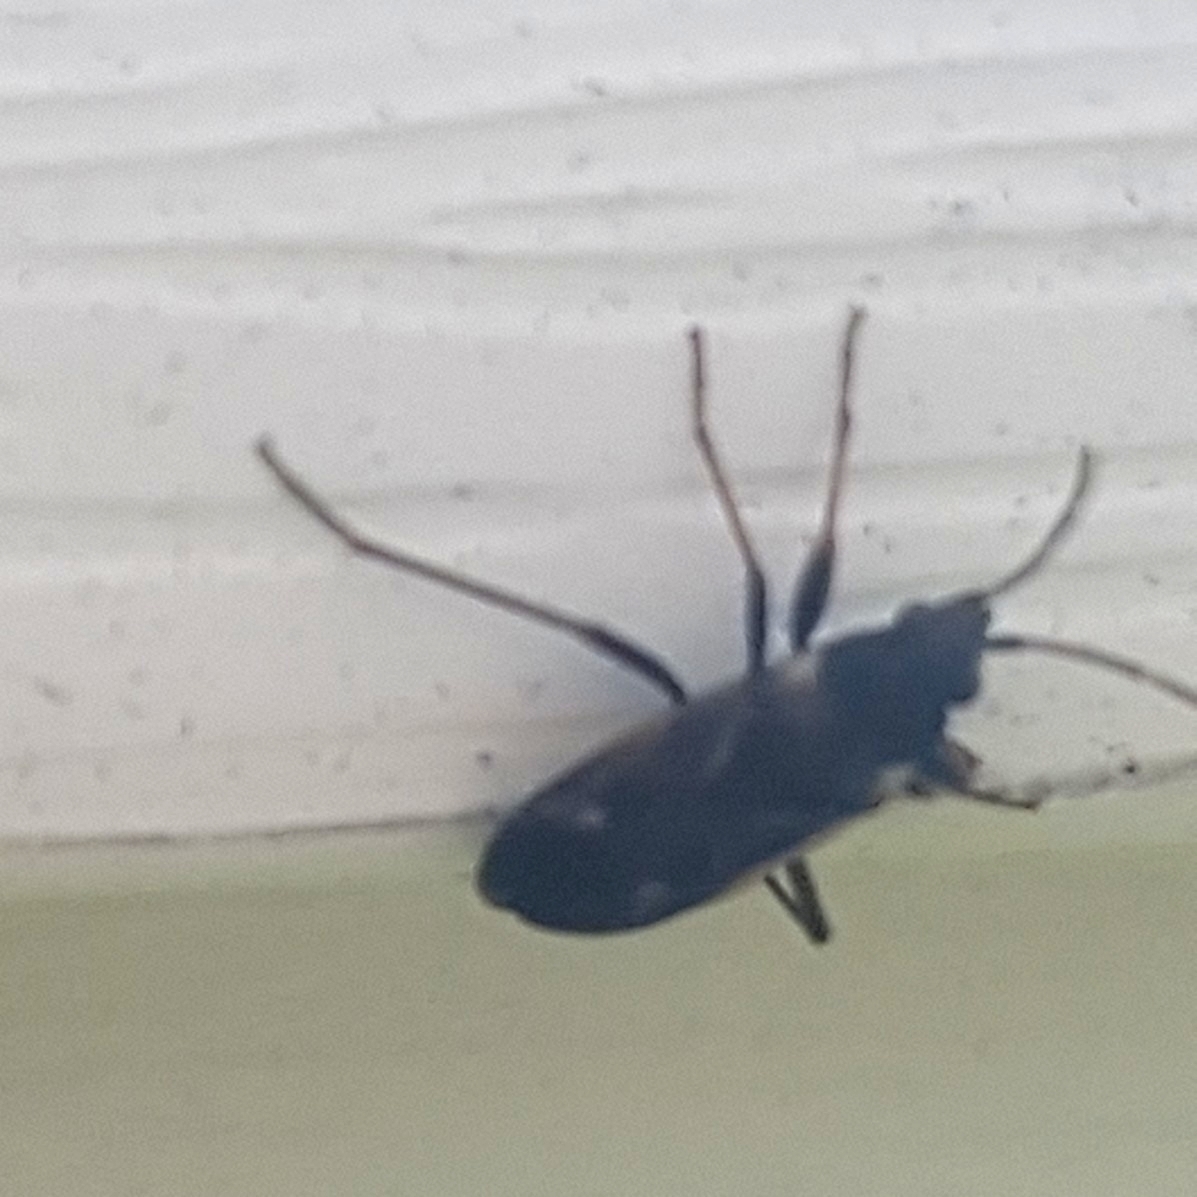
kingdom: Animalia
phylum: Arthropoda
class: Insecta
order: Hemiptera
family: Rhyparochromidae
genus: Rhyparochromus
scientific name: Rhyparochromus vulgaris
